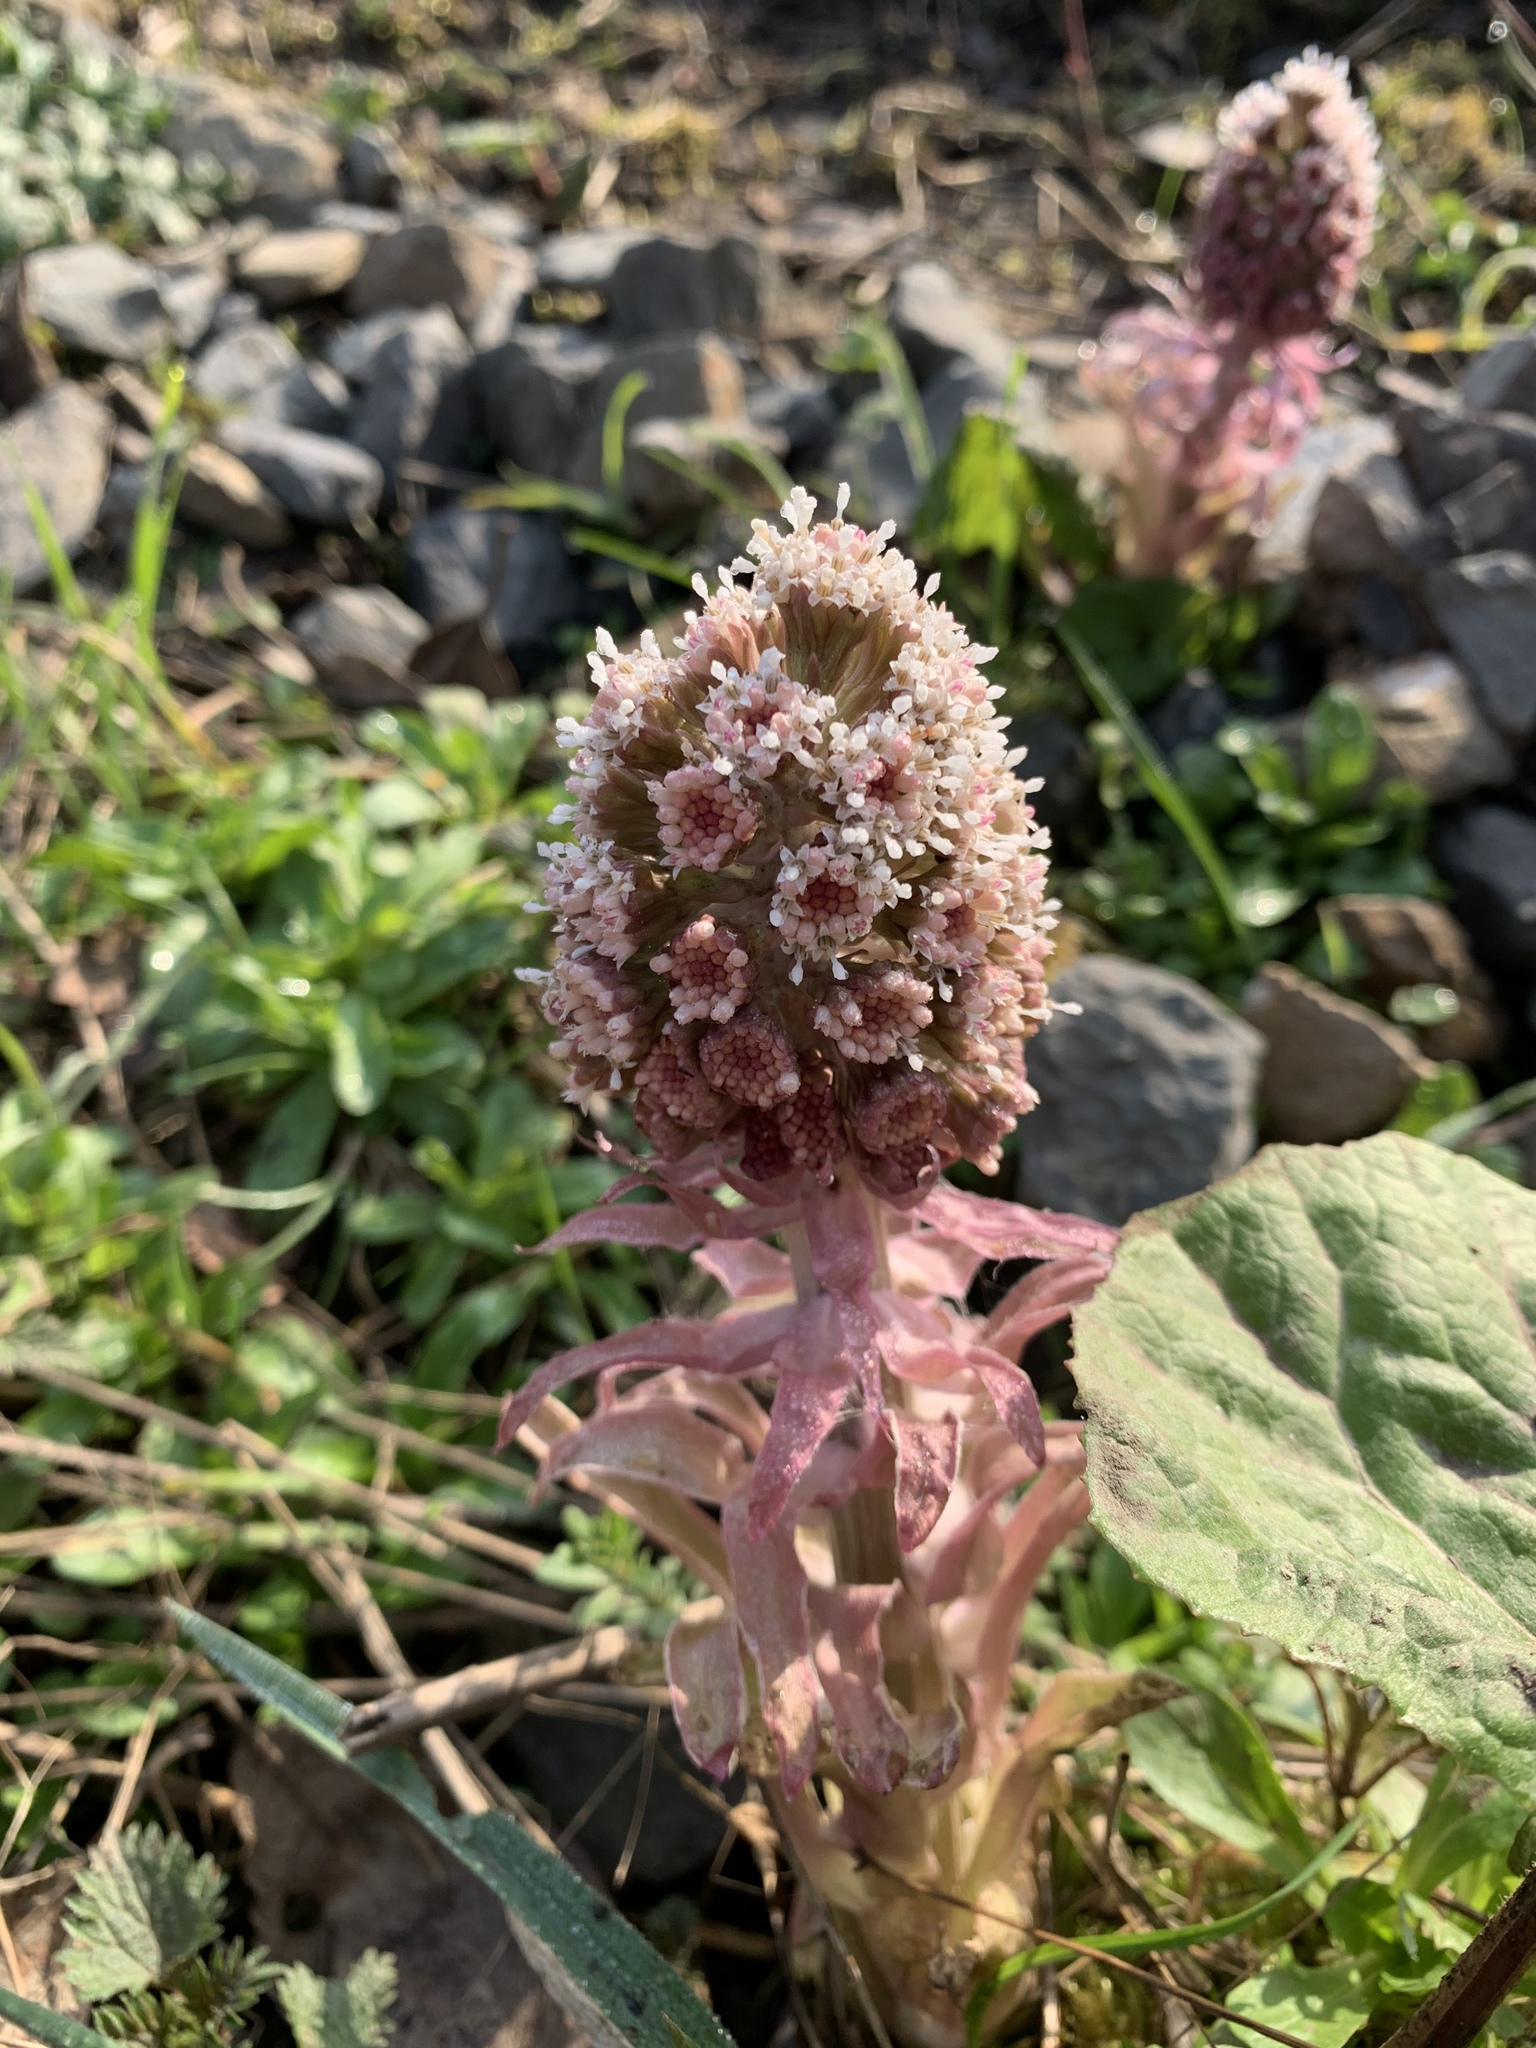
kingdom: Plantae
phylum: Tracheophyta
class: Magnoliopsida
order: Asterales
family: Asteraceae
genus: Petasites
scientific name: Petasites hybridus
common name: Butterbur
